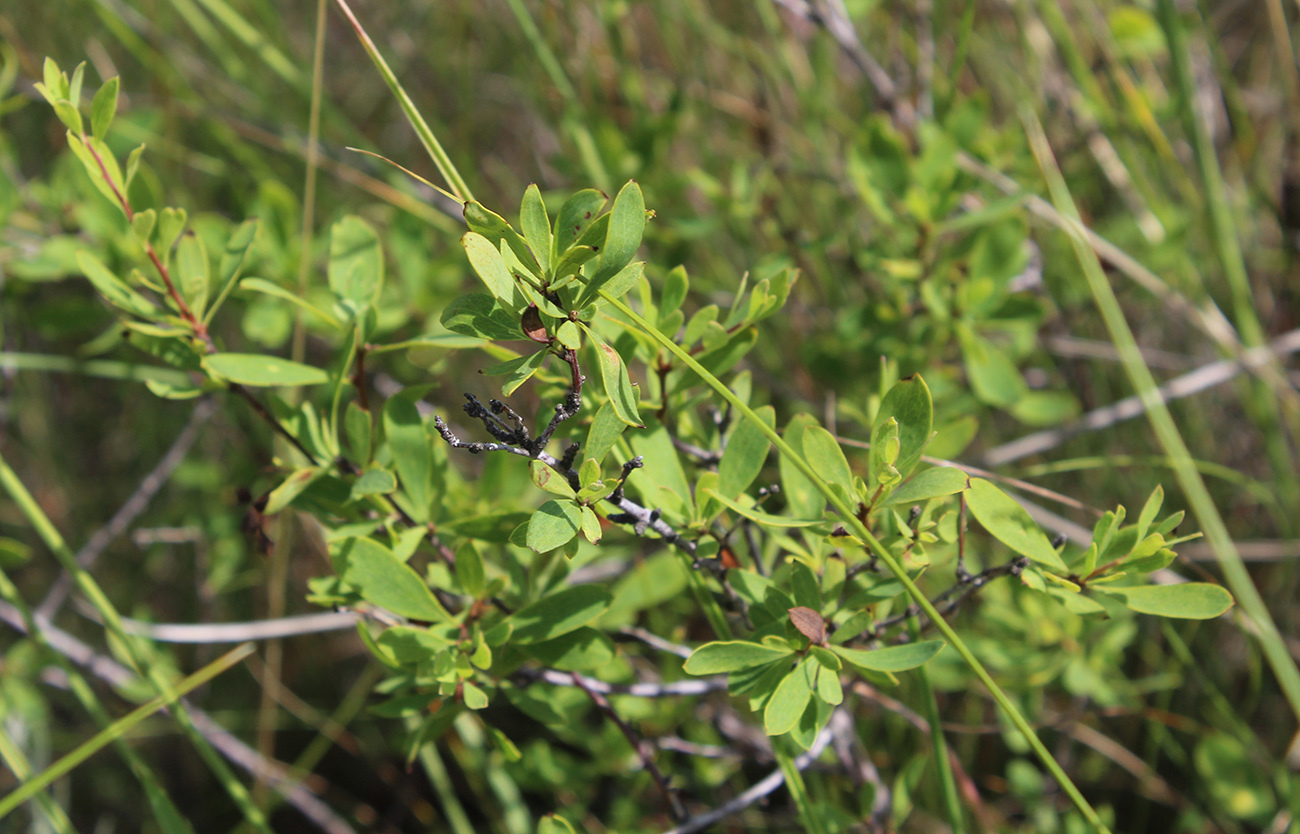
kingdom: Plantae
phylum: Tracheophyta
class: Magnoliopsida
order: Rosales
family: Rosaceae
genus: Spiraea
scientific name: Spiraea hypericifolia
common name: Iberian spirea
